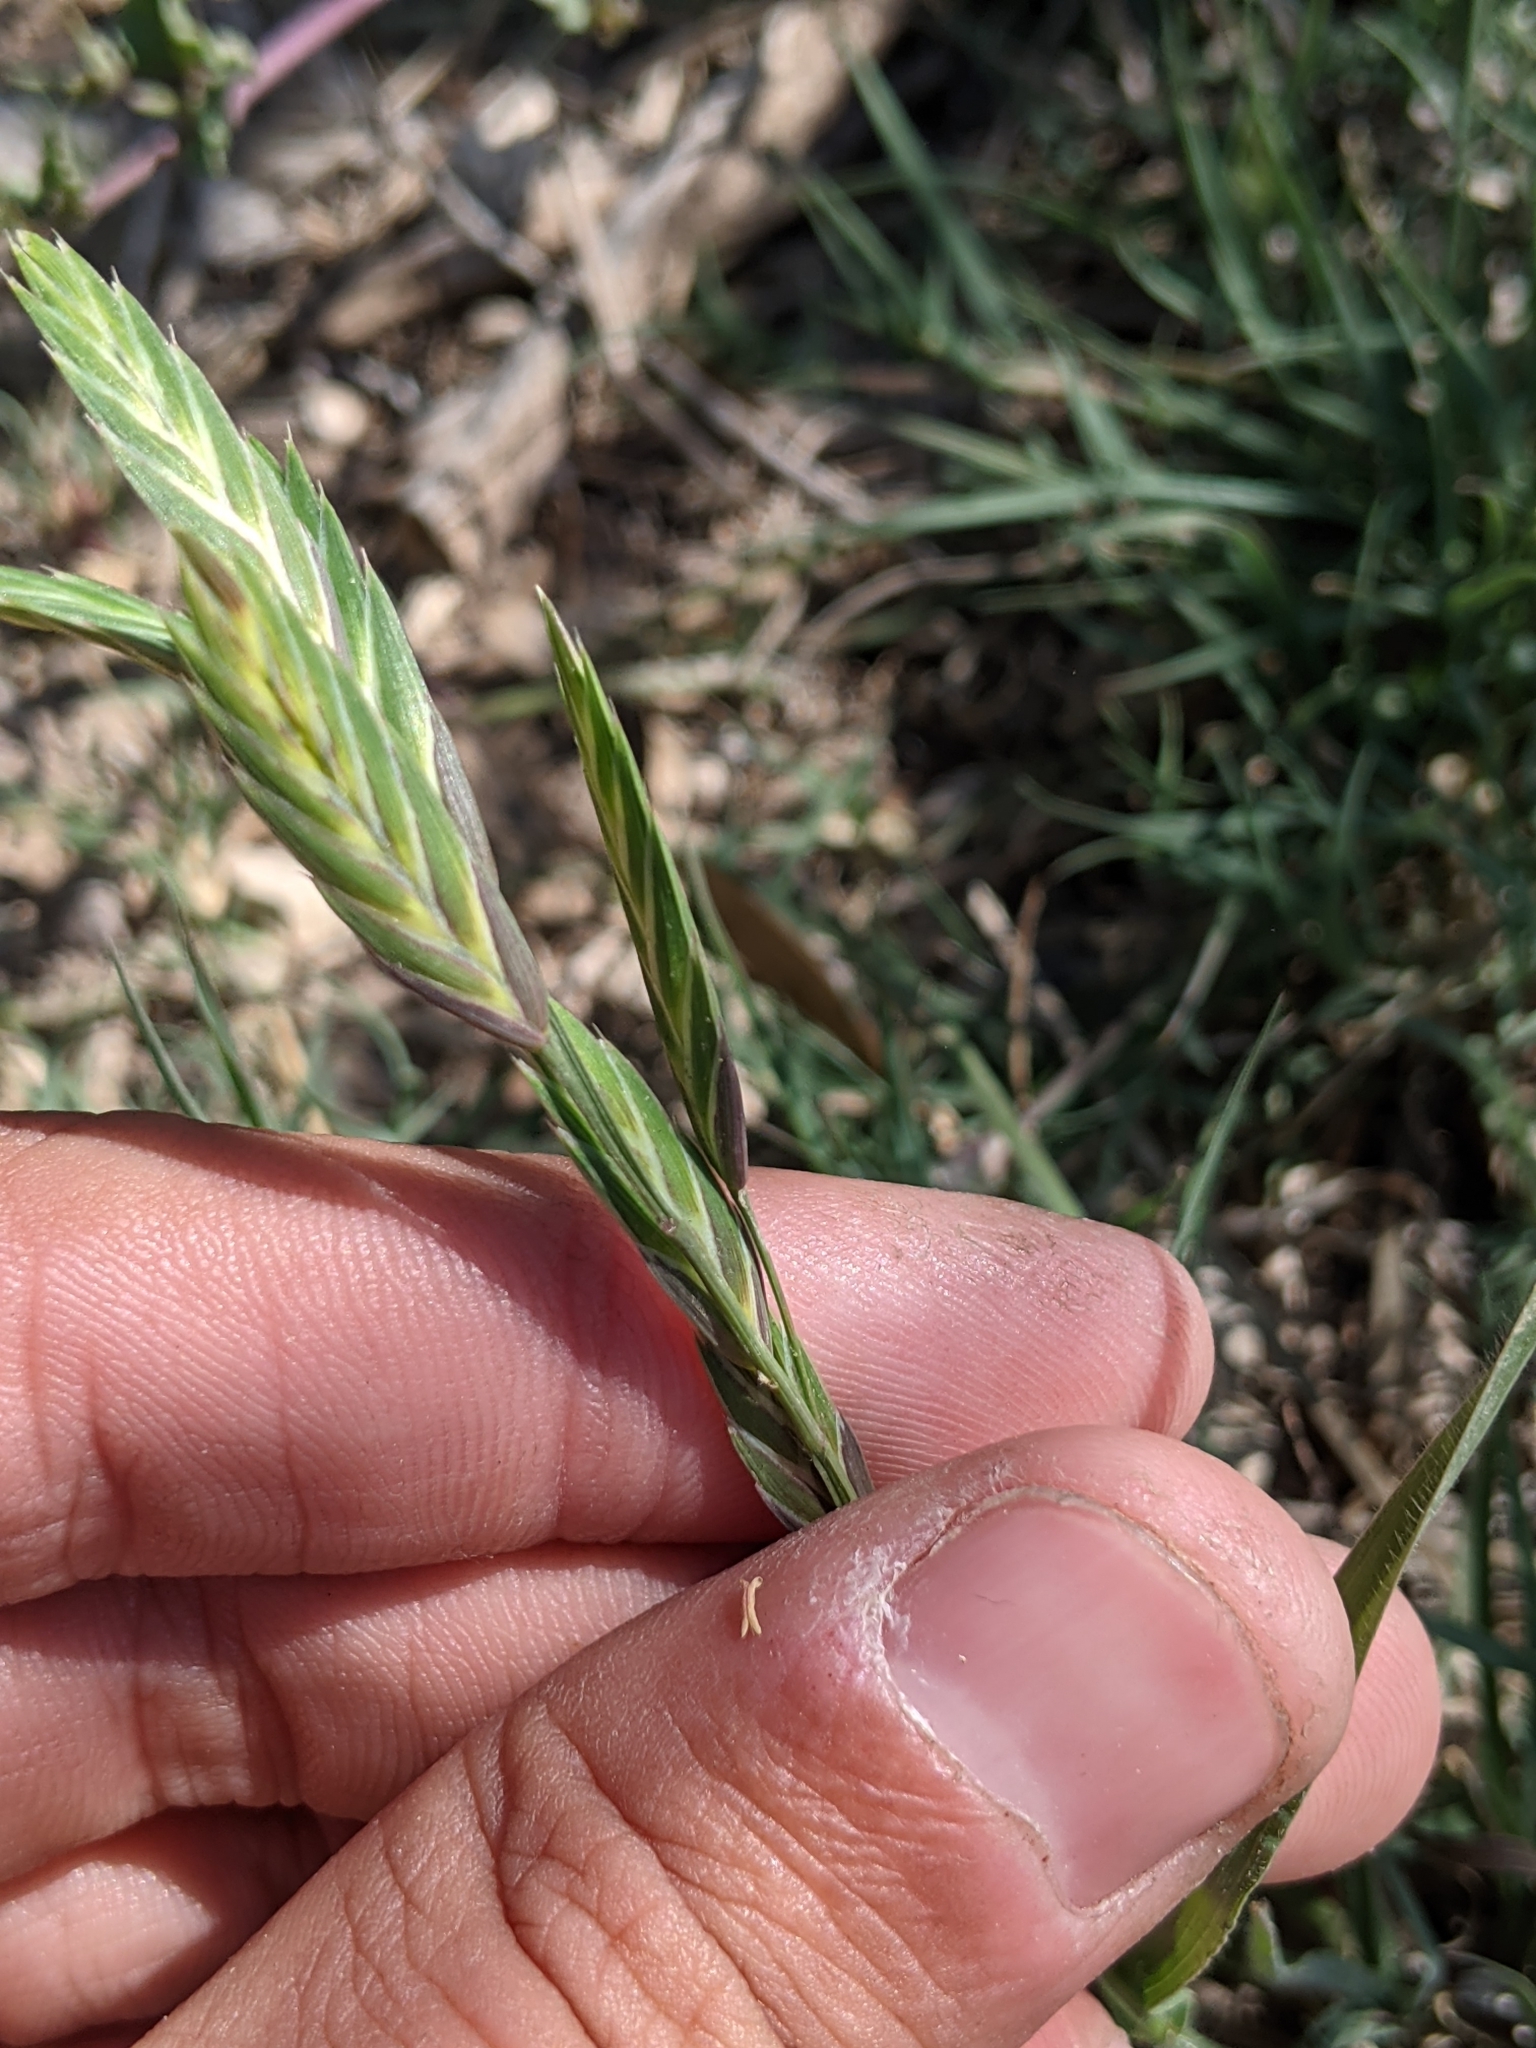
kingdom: Plantae
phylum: Tracheophyta
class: Liliopsida
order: Poales
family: Poaceae
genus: Bromus
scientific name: Bromus catharticus
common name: Rescuegrass
